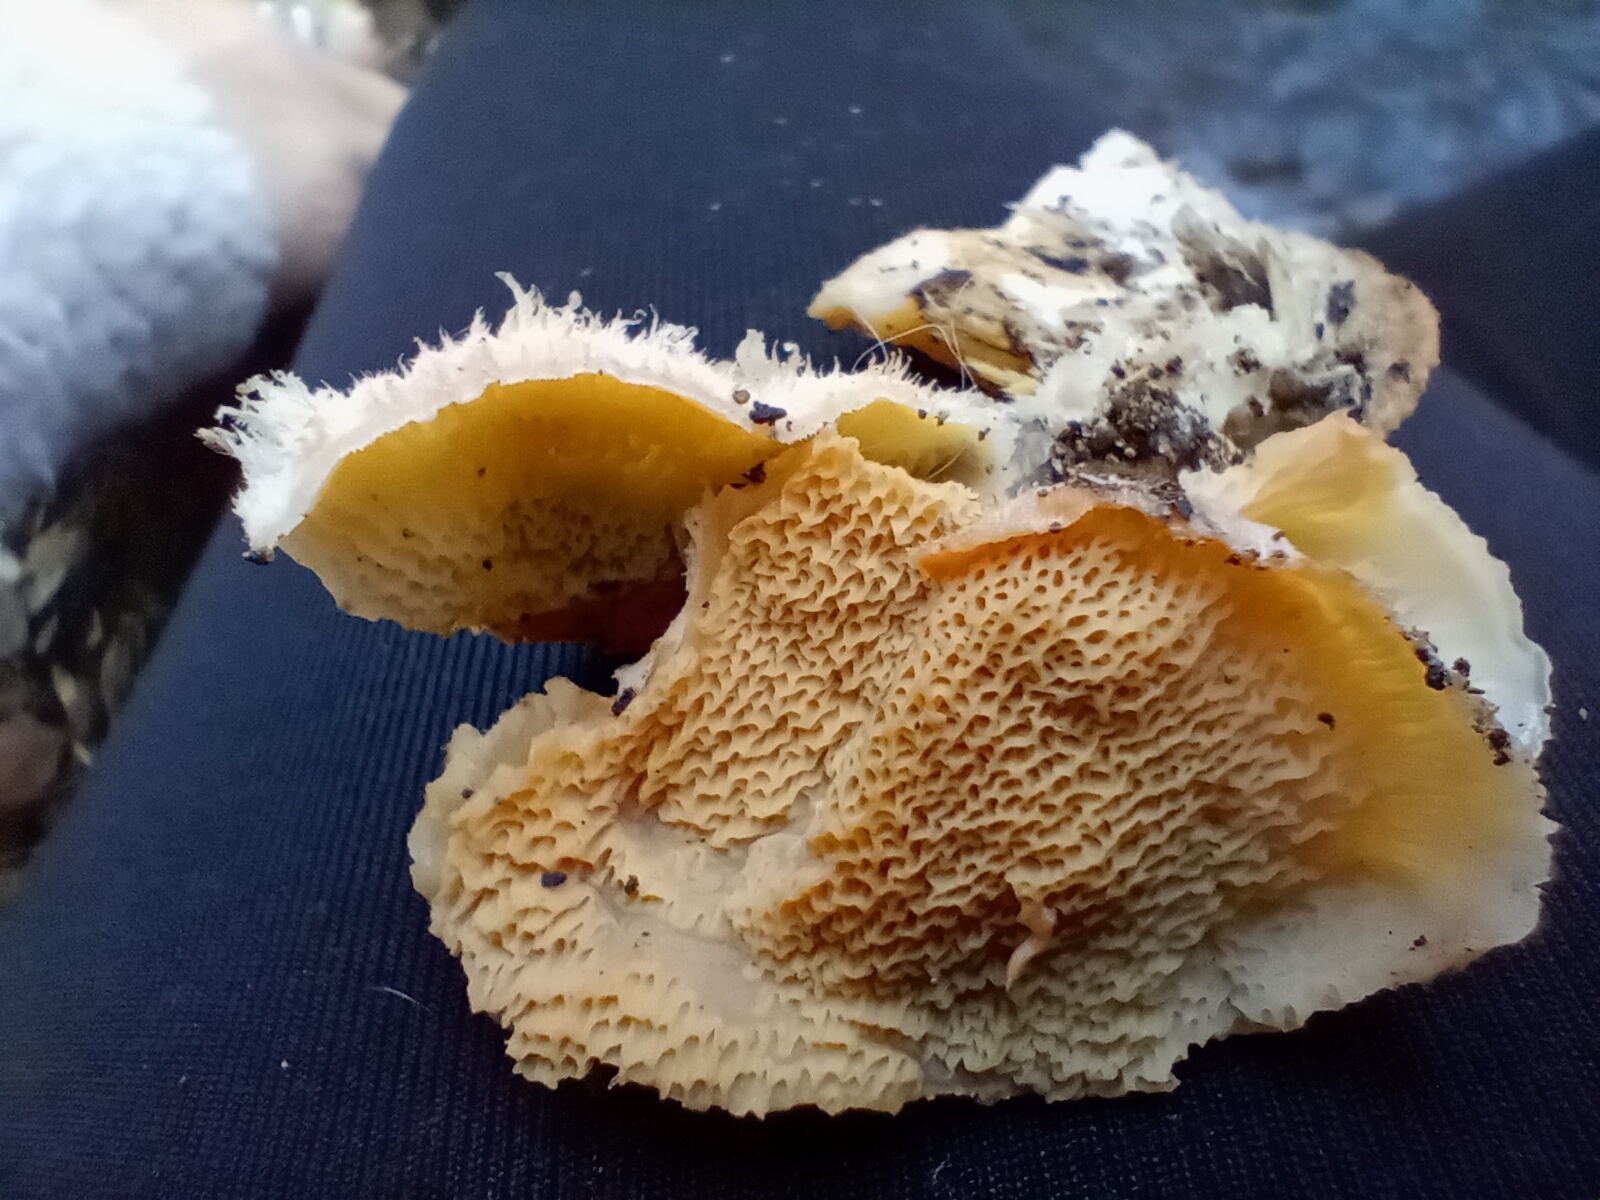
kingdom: Fungi
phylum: Basidiomycota
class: Agaricomycetes
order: Polyporales
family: Meruliaceae
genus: Phlebia
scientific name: Phlebia tremellosa
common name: Jelly rot
